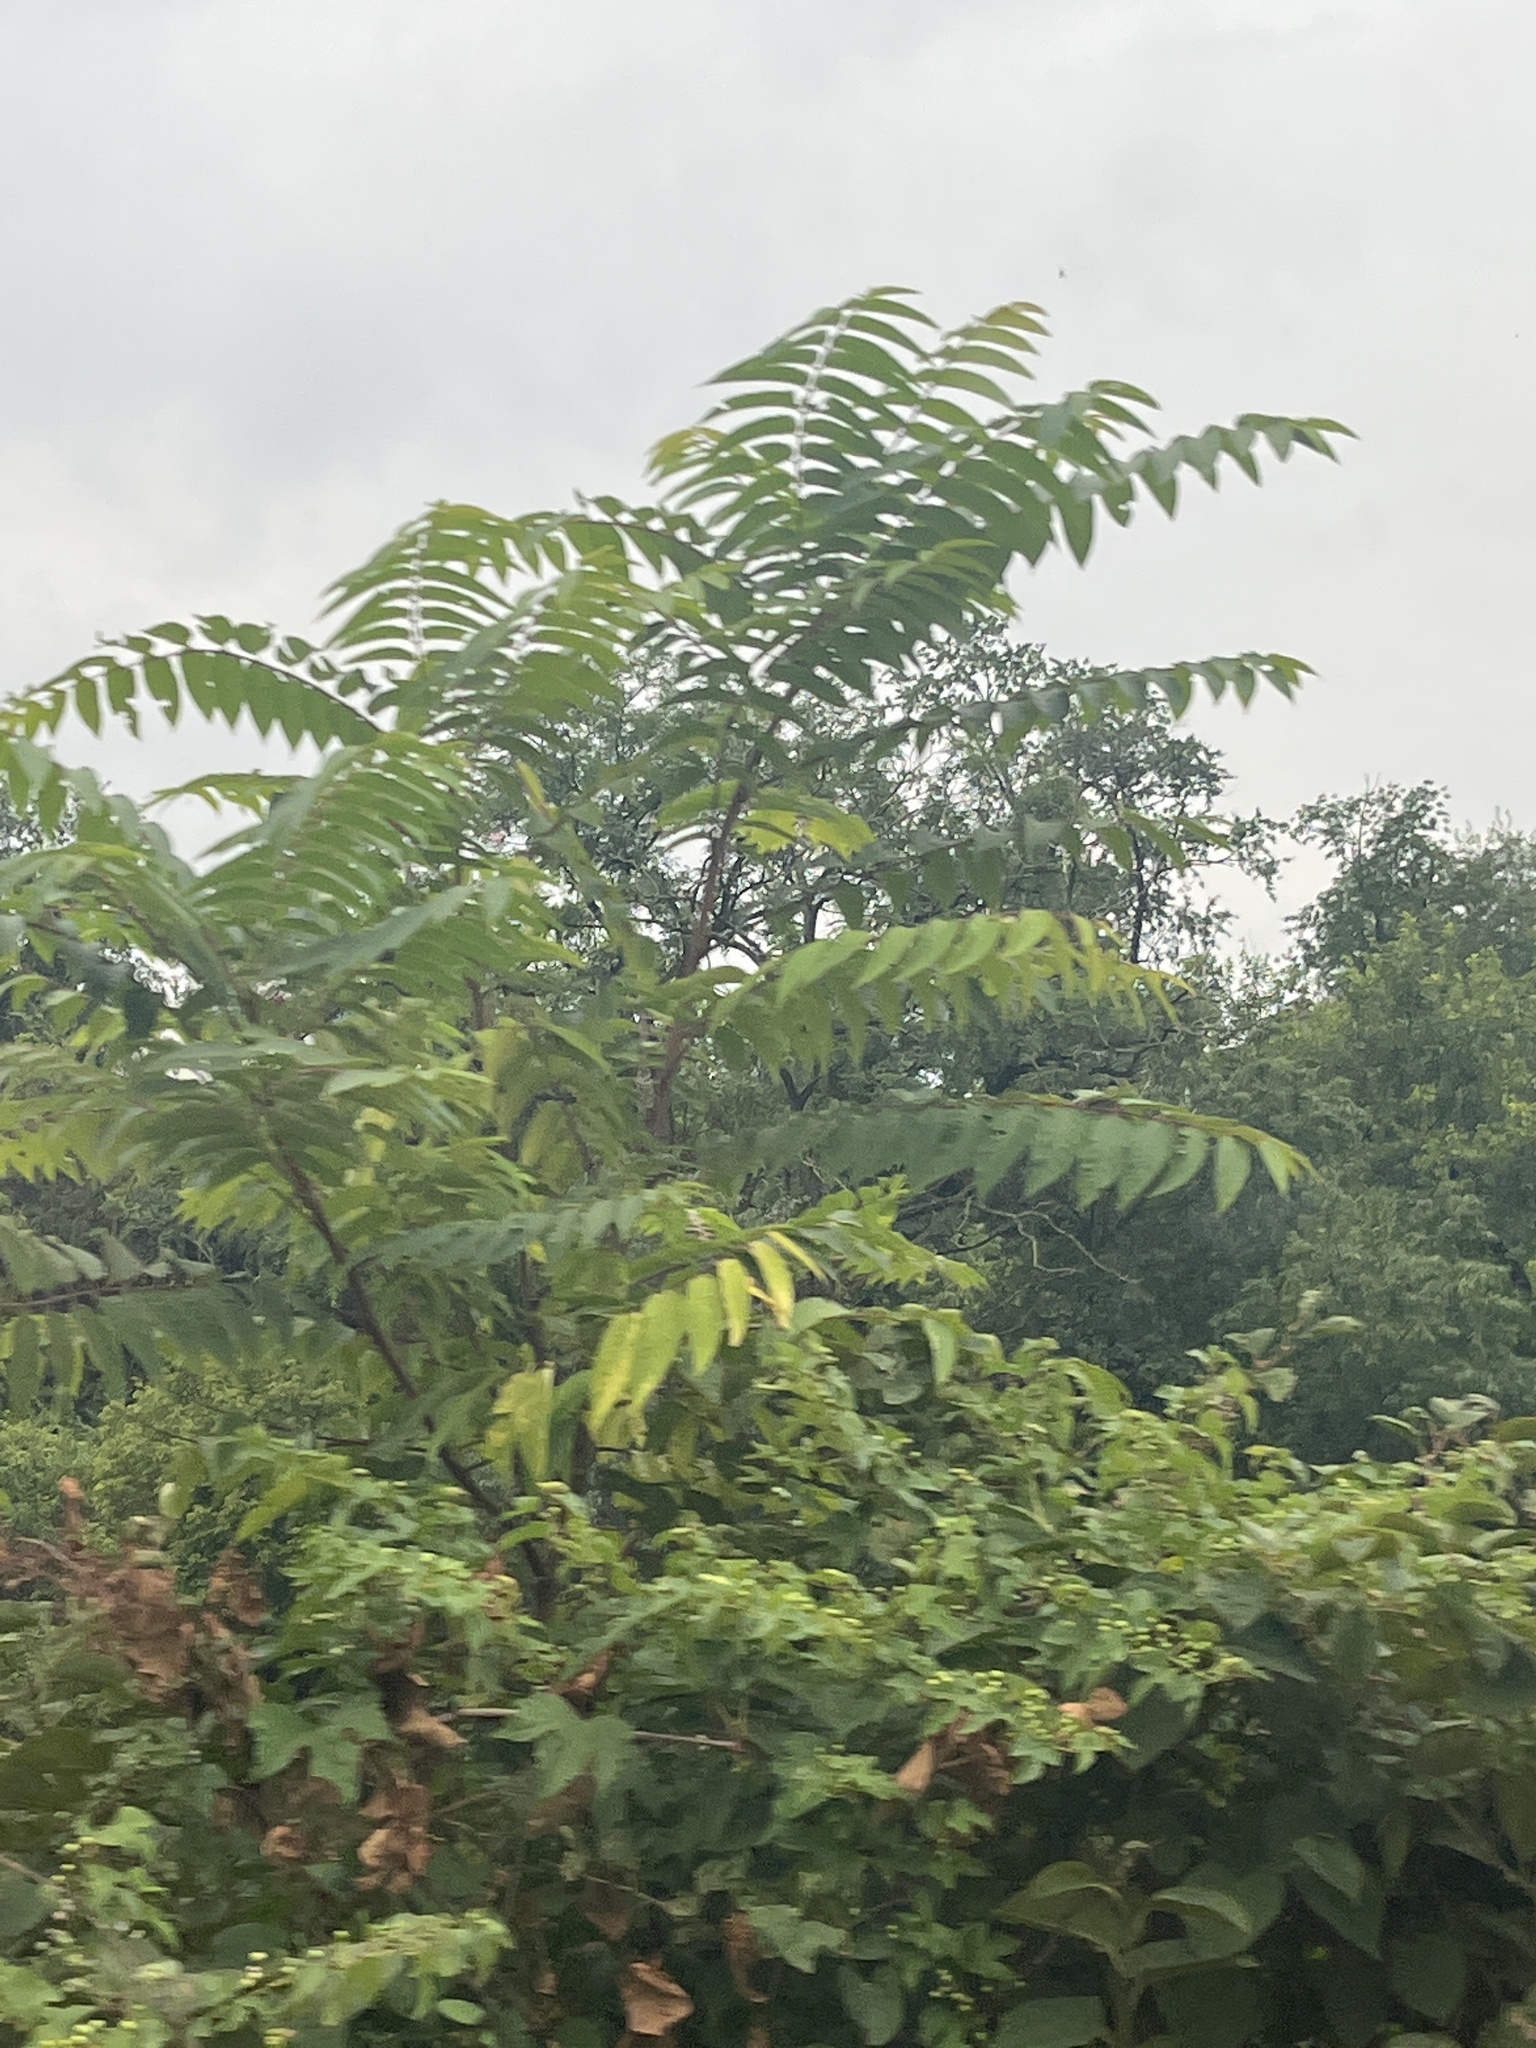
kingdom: Plantae
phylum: Tracheophyta
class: Magnoliopsida
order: Sapindales
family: Simaroubaceae
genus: Ailanthus
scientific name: Ailanthus altissima
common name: Tree-of-heaven
